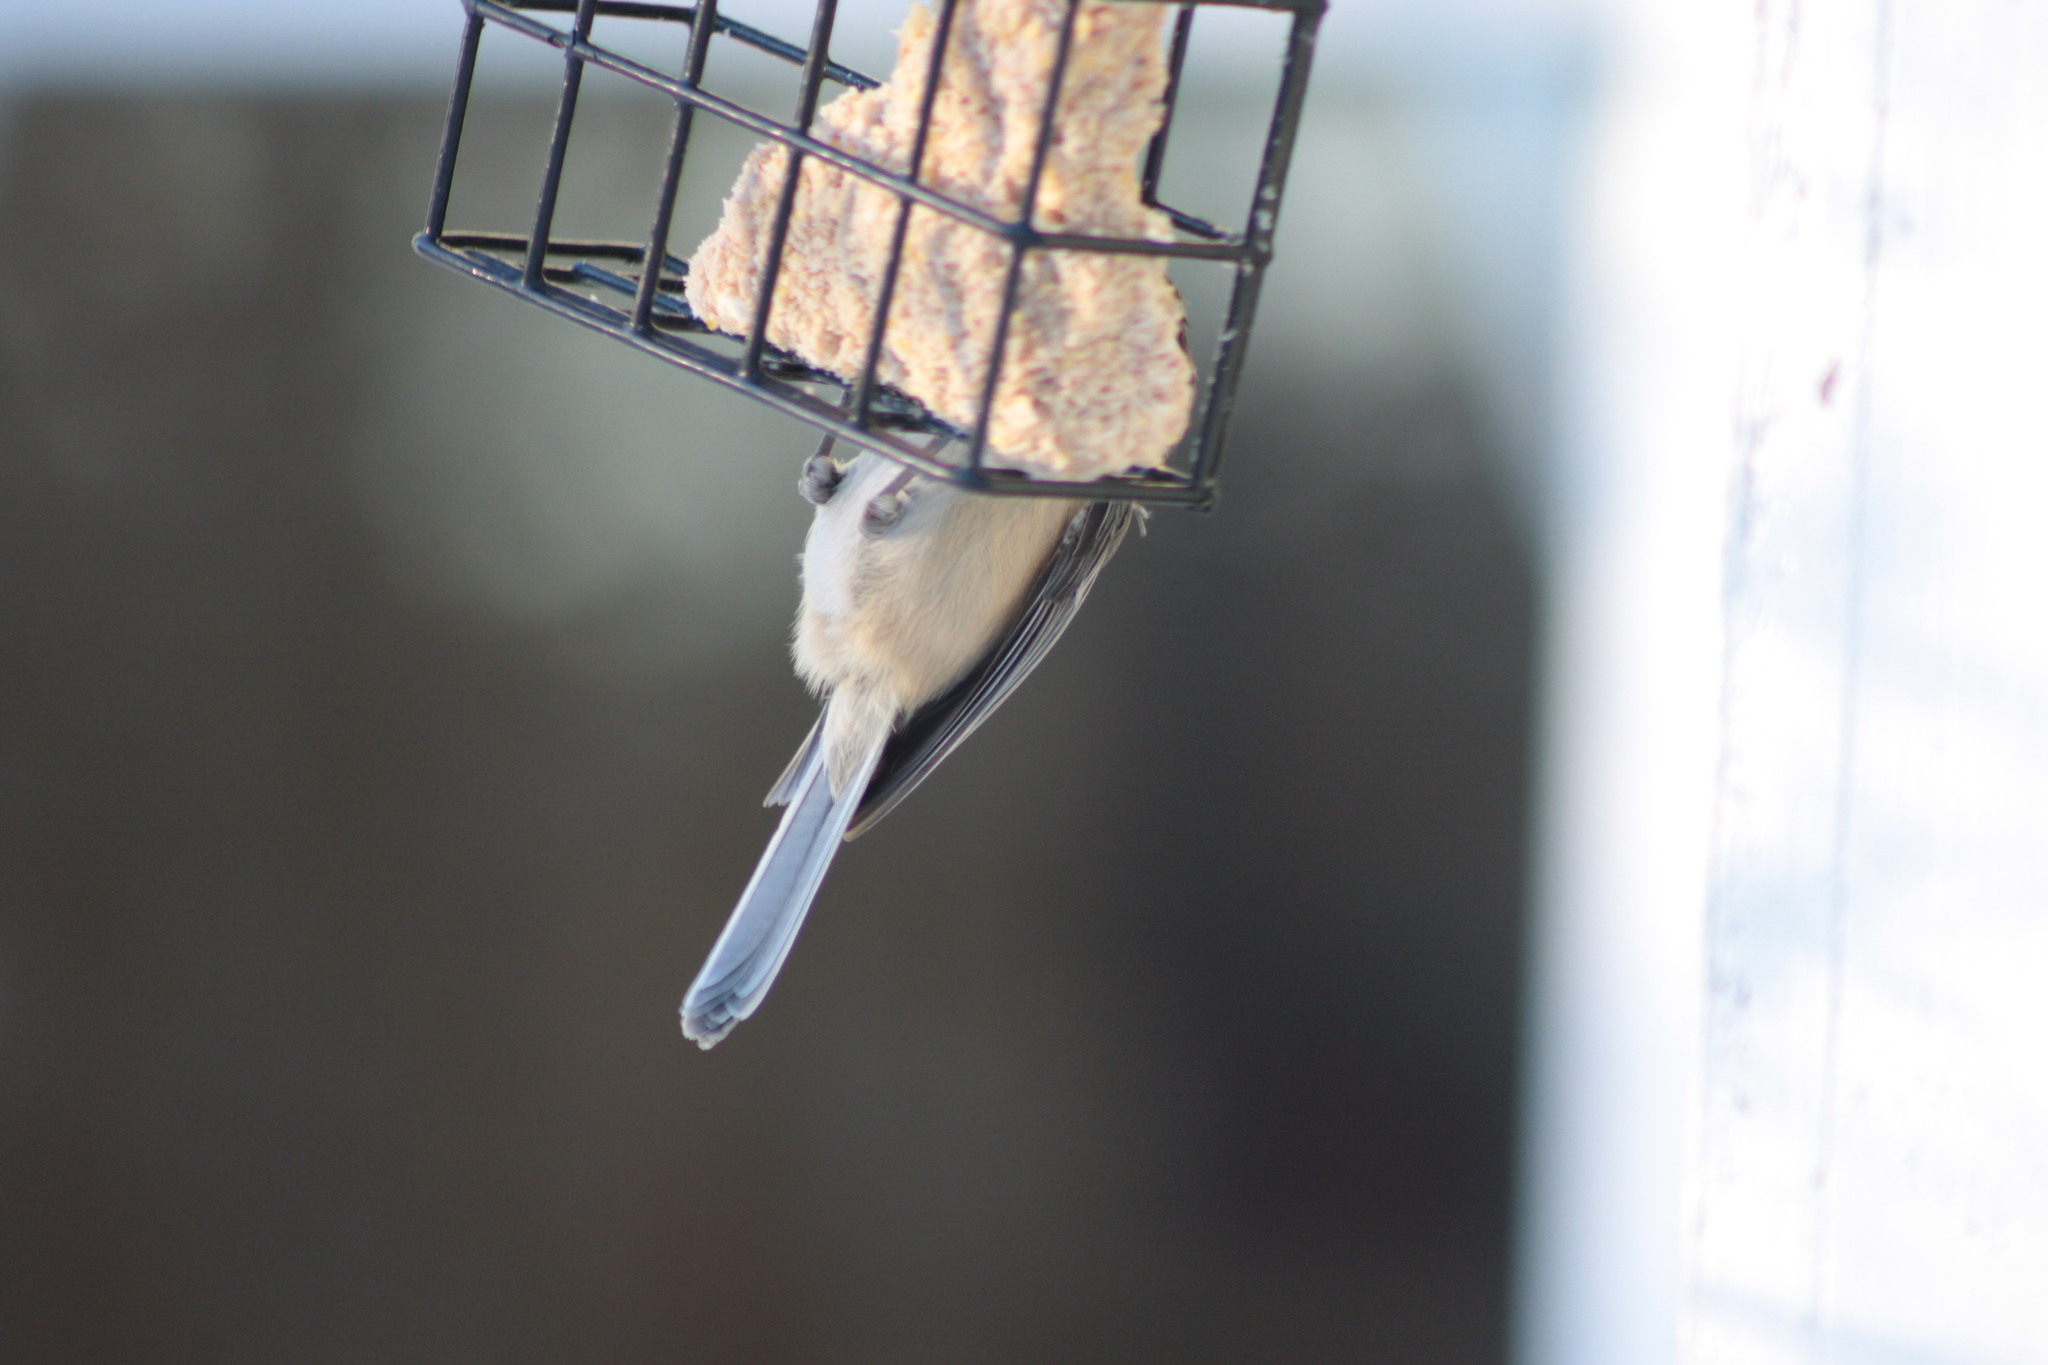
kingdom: Animalia
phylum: Chordata
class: Aves
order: Passeriformes
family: Paridae
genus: Poecile
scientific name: Poecile atricapillus
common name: Black-capped chickadee
